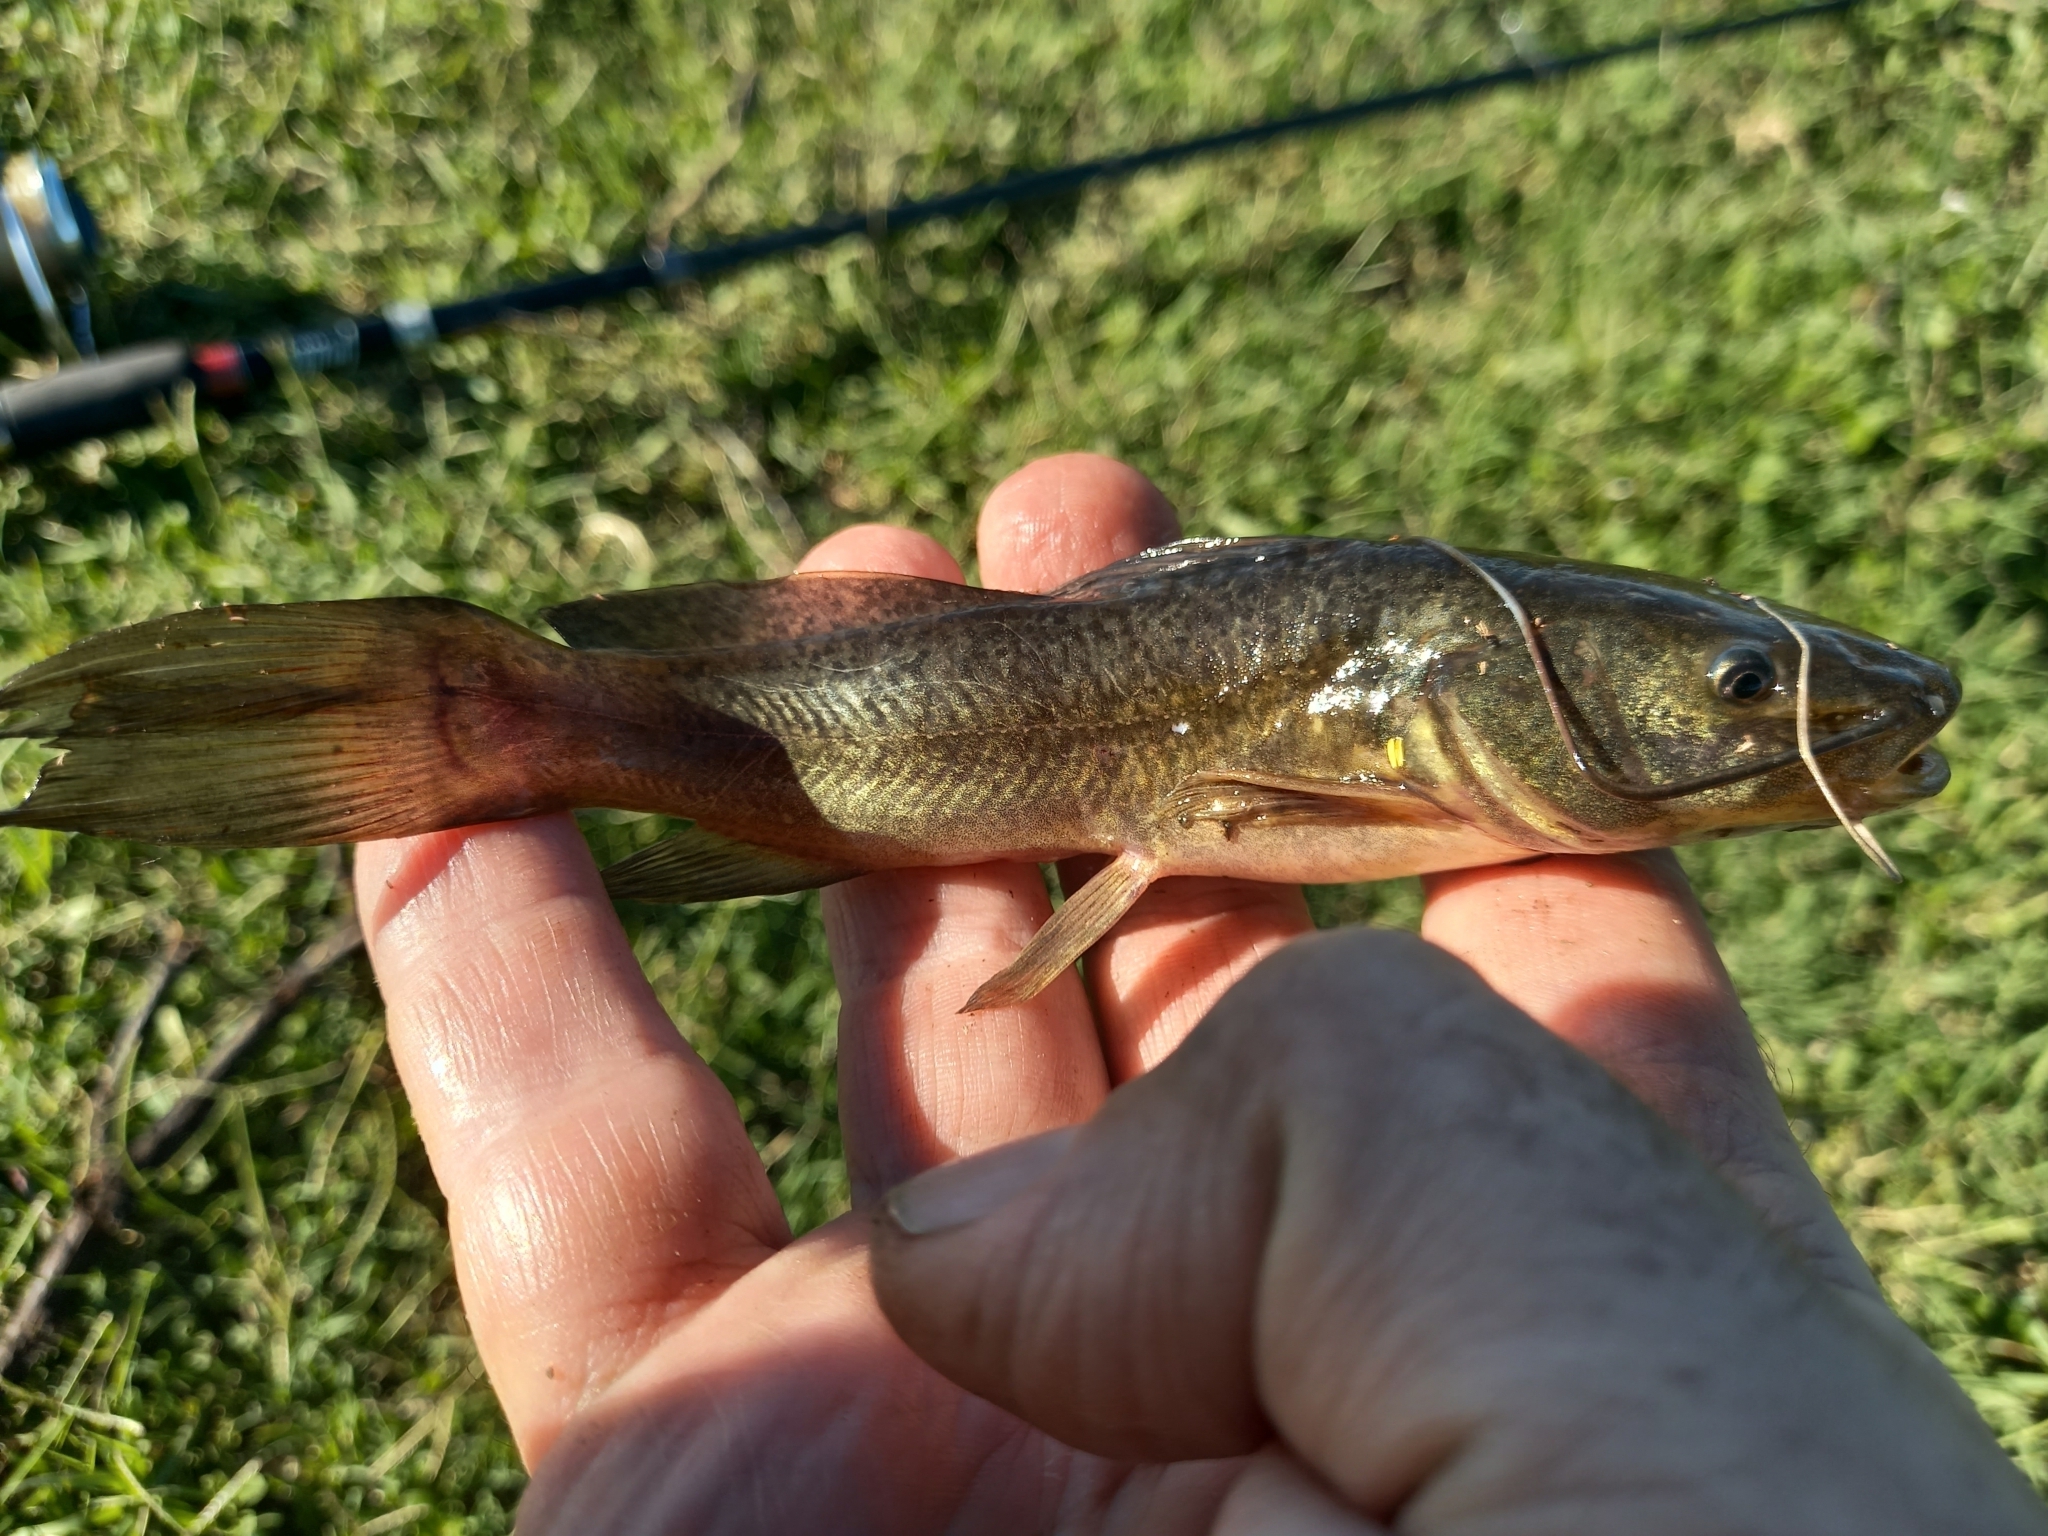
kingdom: Animalia
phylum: Chordata
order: Siluriformes
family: Heptapteridae
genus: Rhamdia
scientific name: Rhamdia quelen
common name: Catfish
